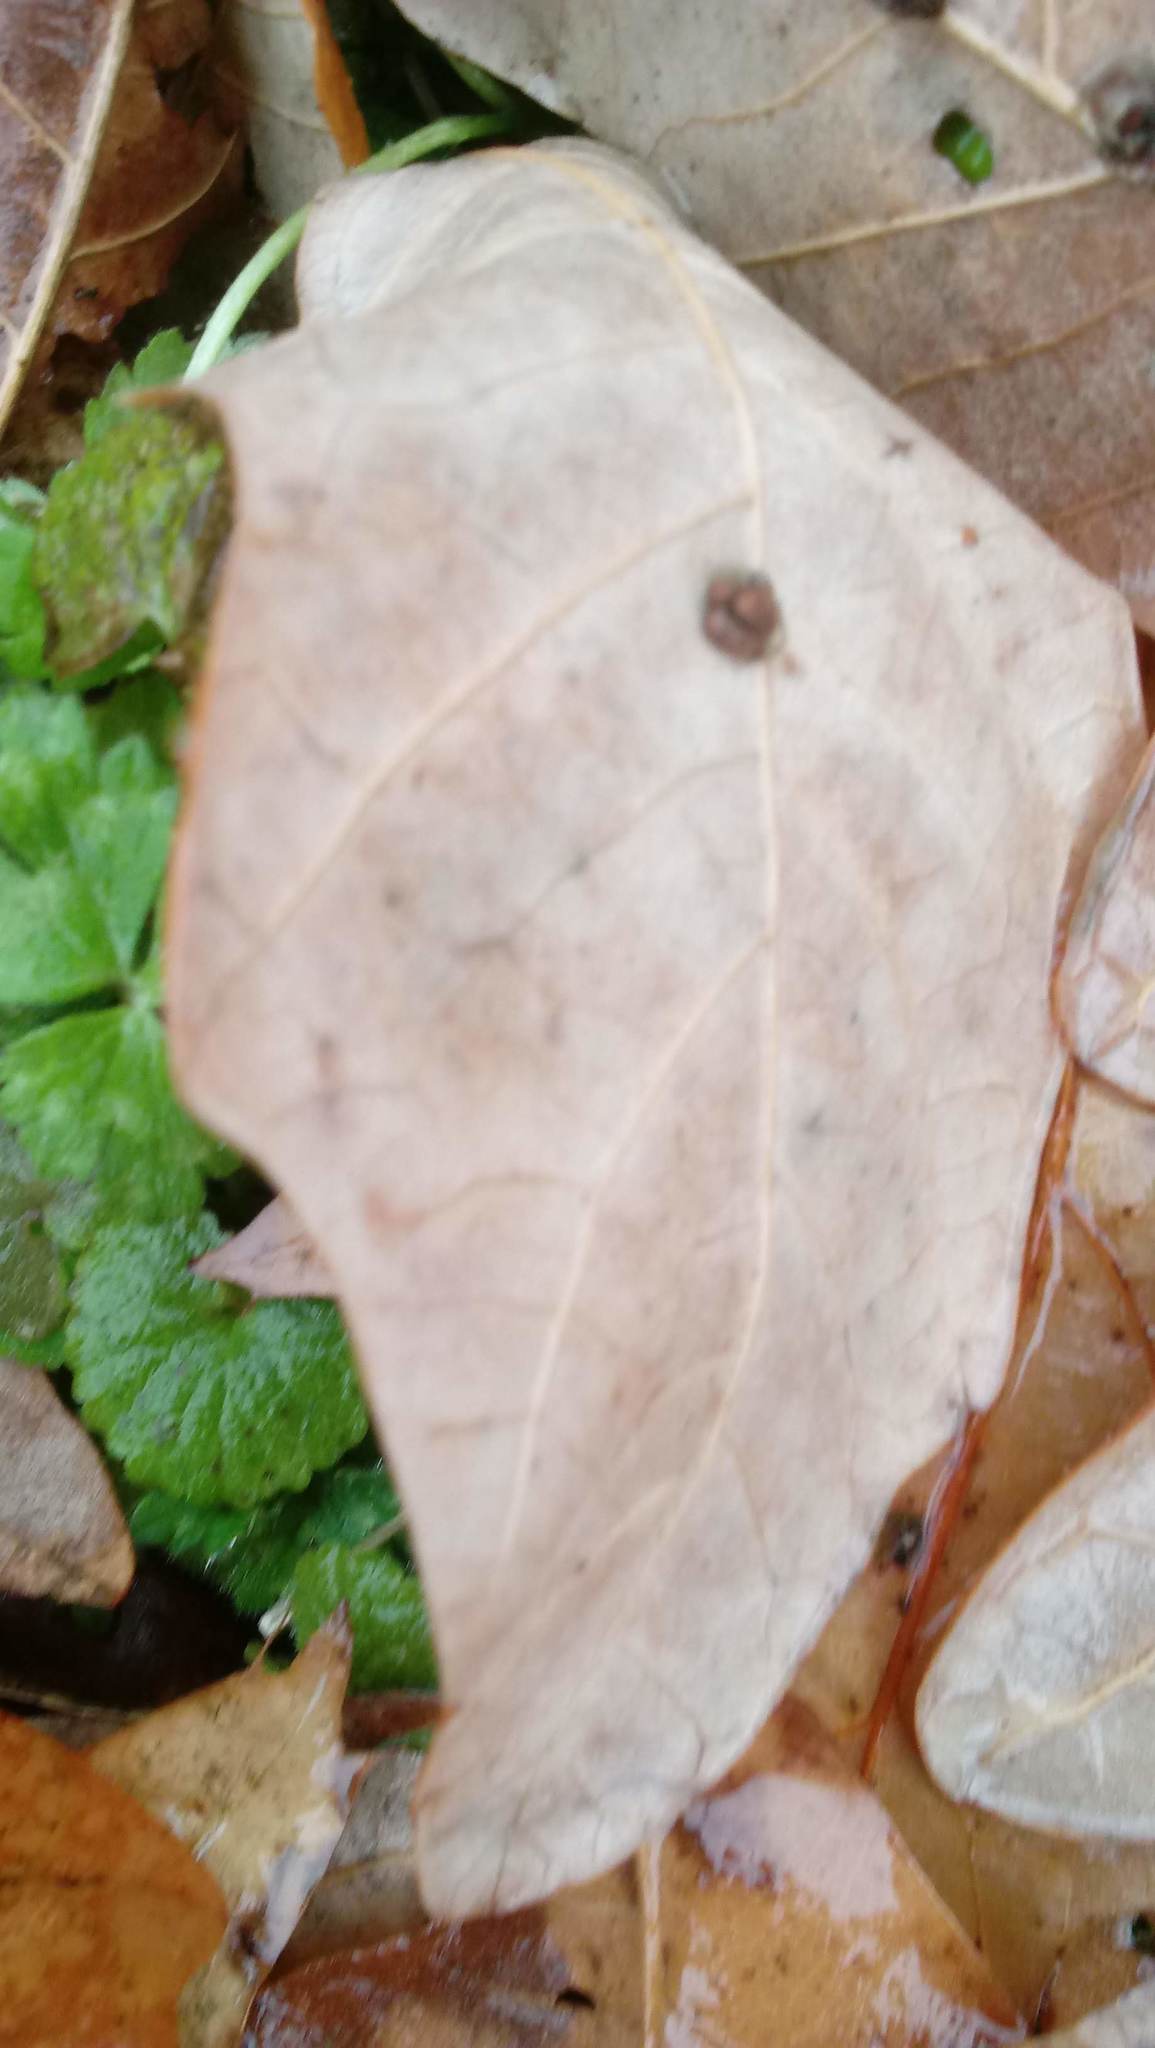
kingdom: Animalia
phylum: Arthropoda
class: Insecta
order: Hymenoptera
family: Cynipidae
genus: Andricus
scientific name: Andricus Druon ignotum
